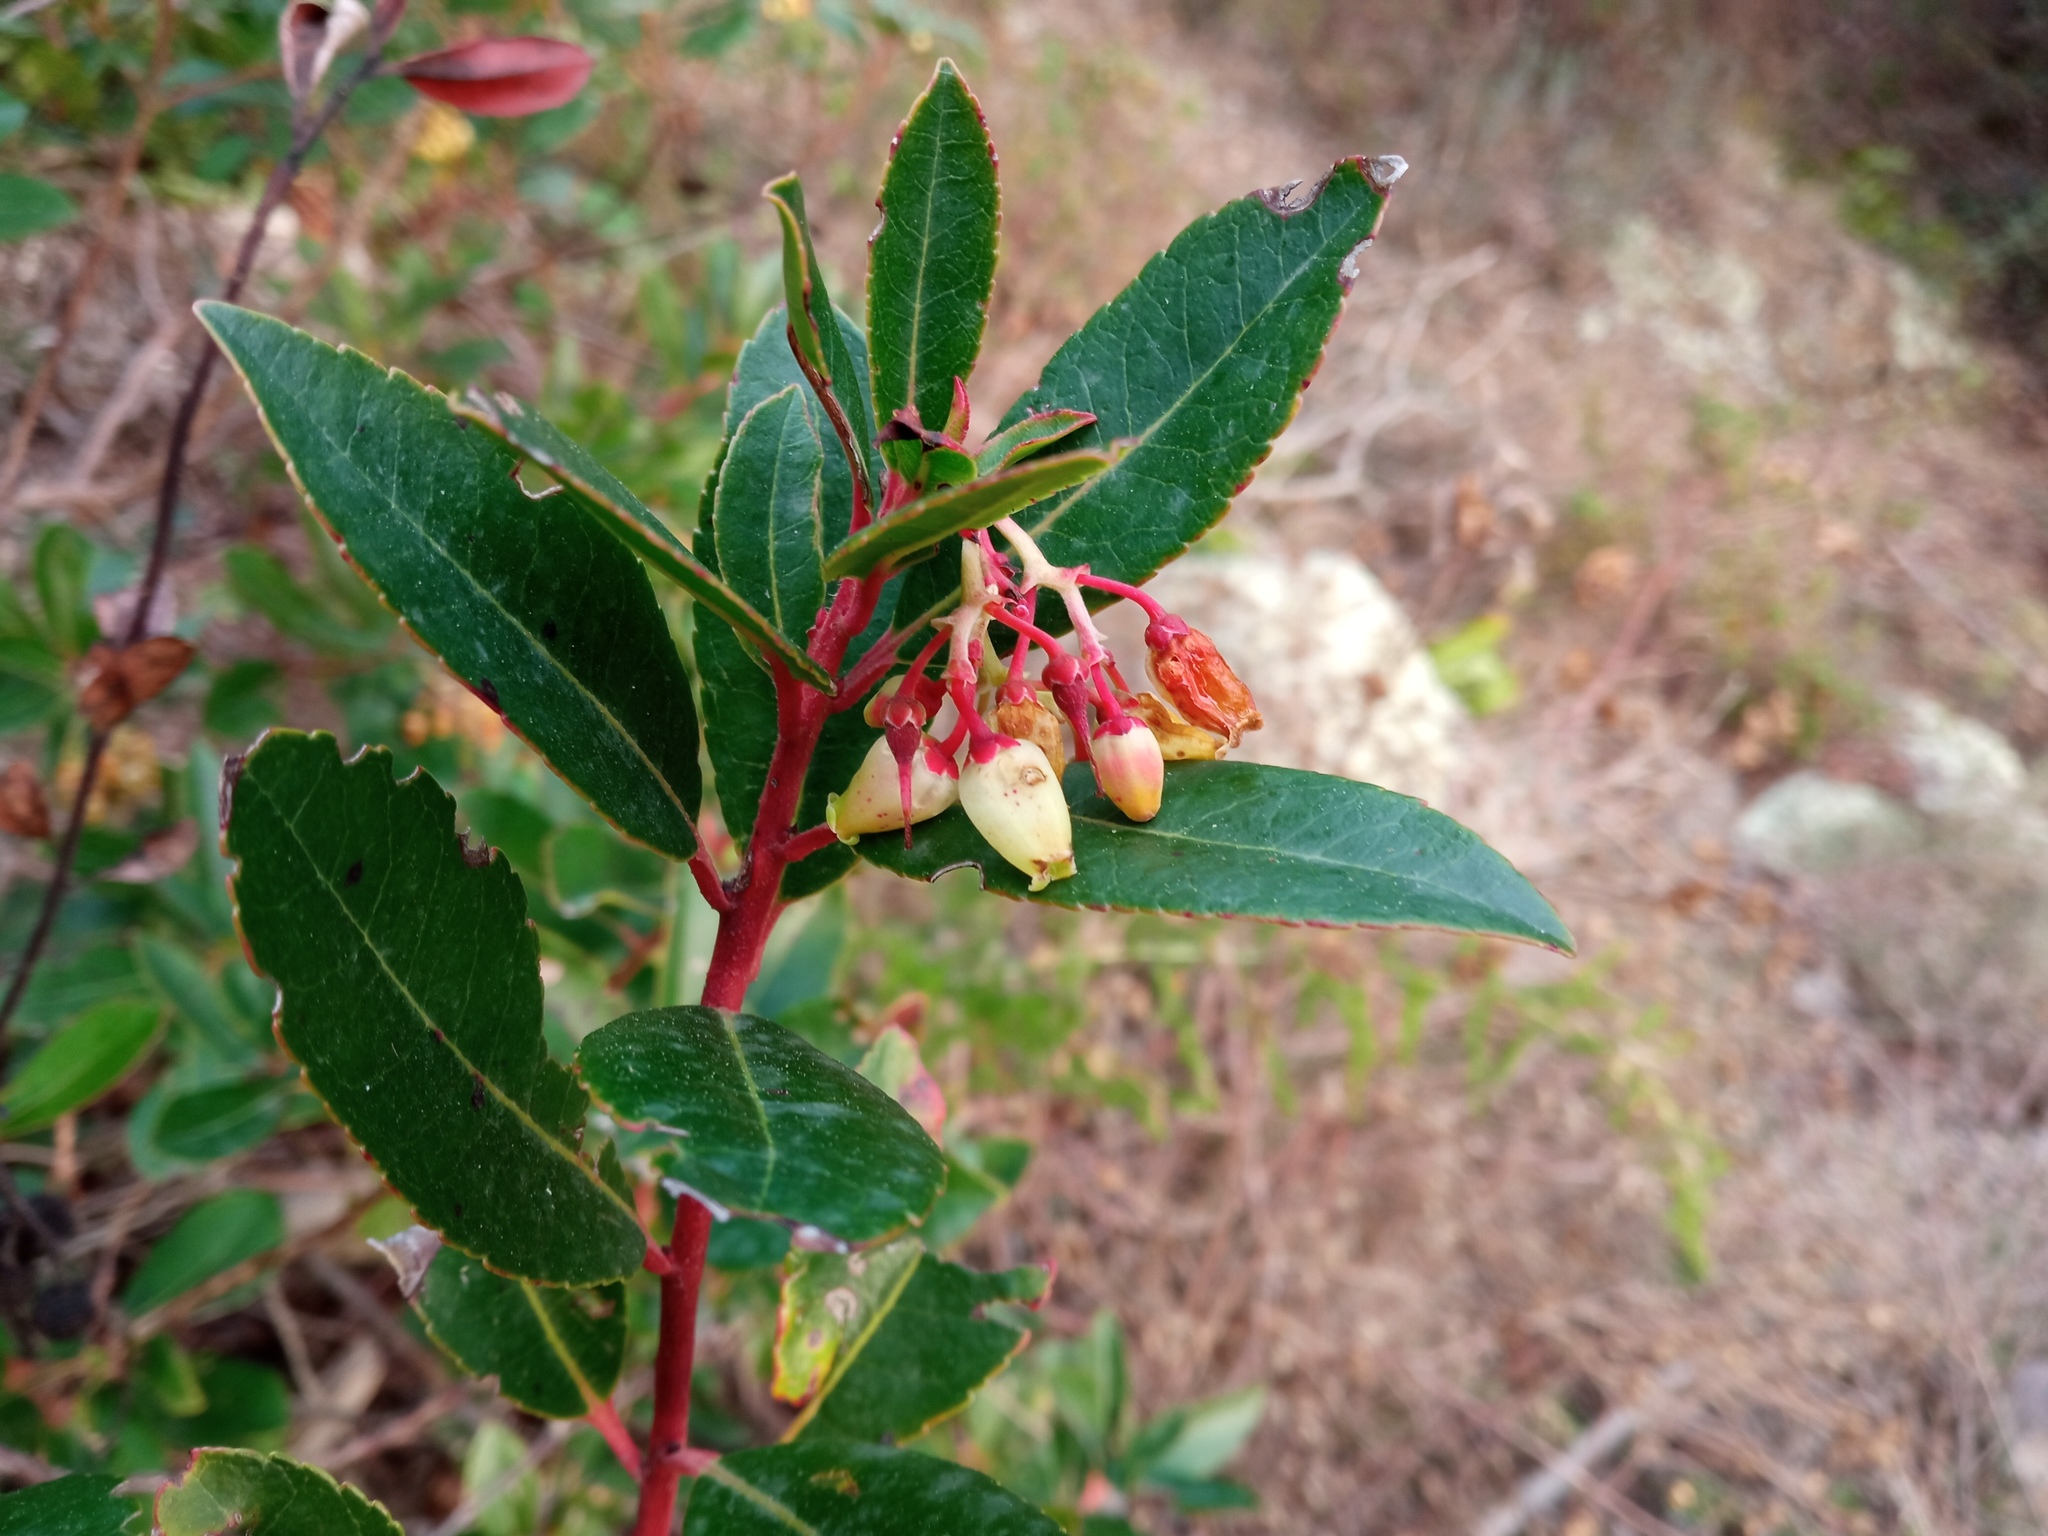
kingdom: Plantae
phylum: Tracheophyta
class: Magnoliopsida
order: Ericales
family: Ericaceae
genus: Arbutus
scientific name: Arbutus unedo
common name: Strawberry-tree
